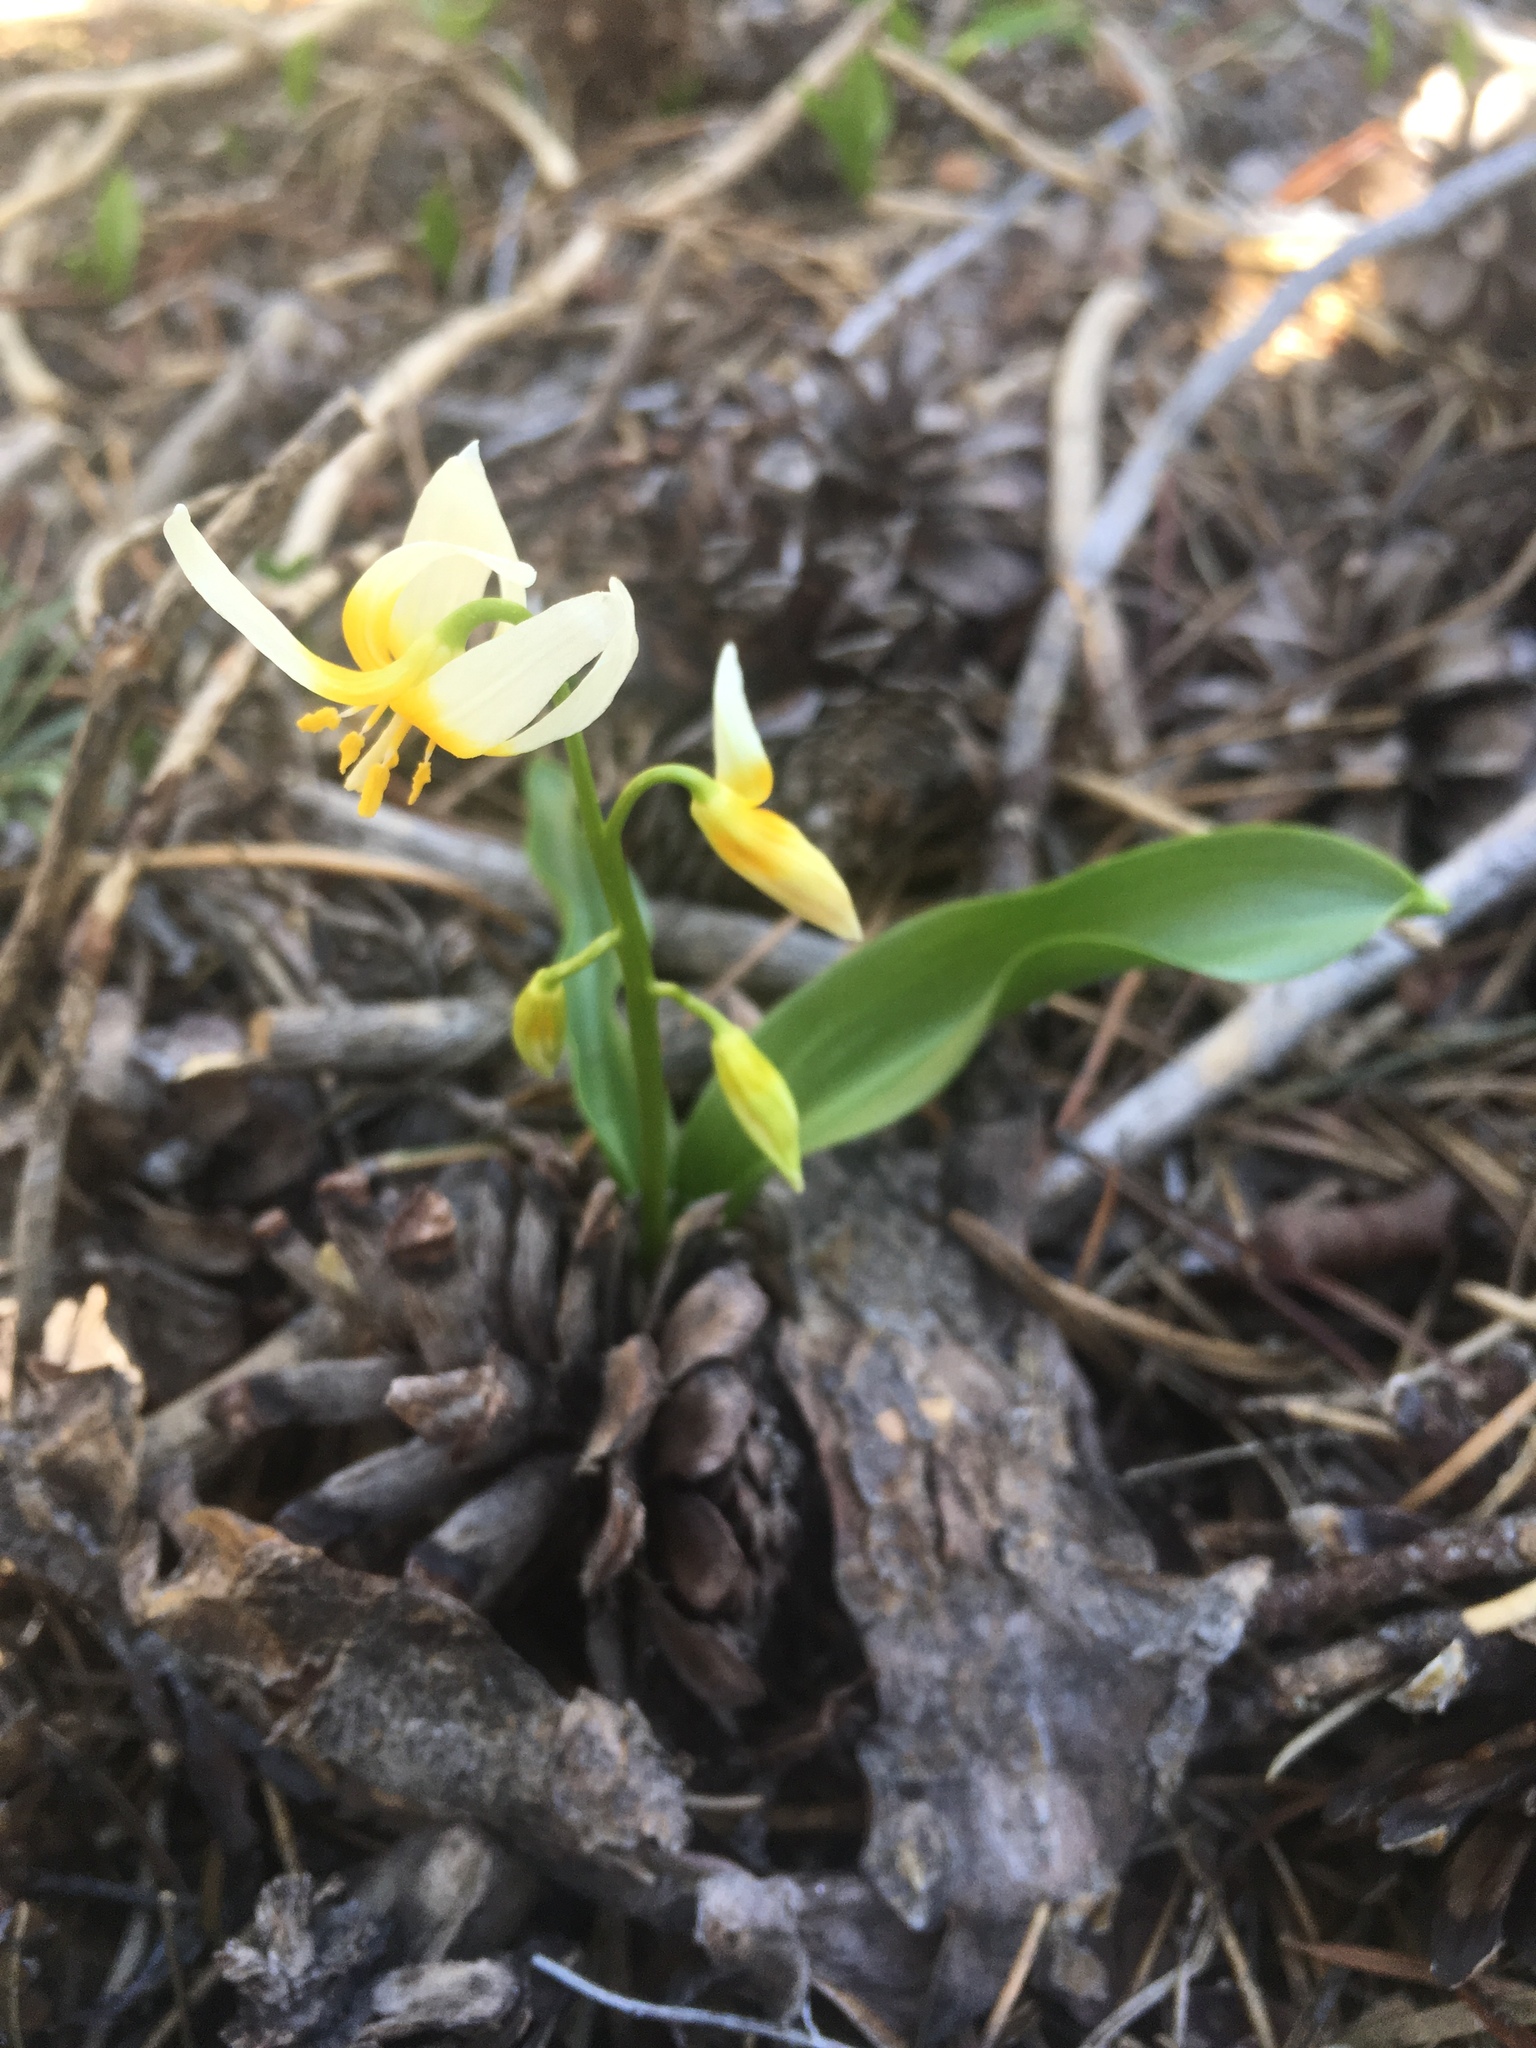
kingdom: Plantae
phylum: Tracheophyta
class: Liliopsida
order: Liliales
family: Liliaceae
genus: Erythronium
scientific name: Erythronium purpurascens
